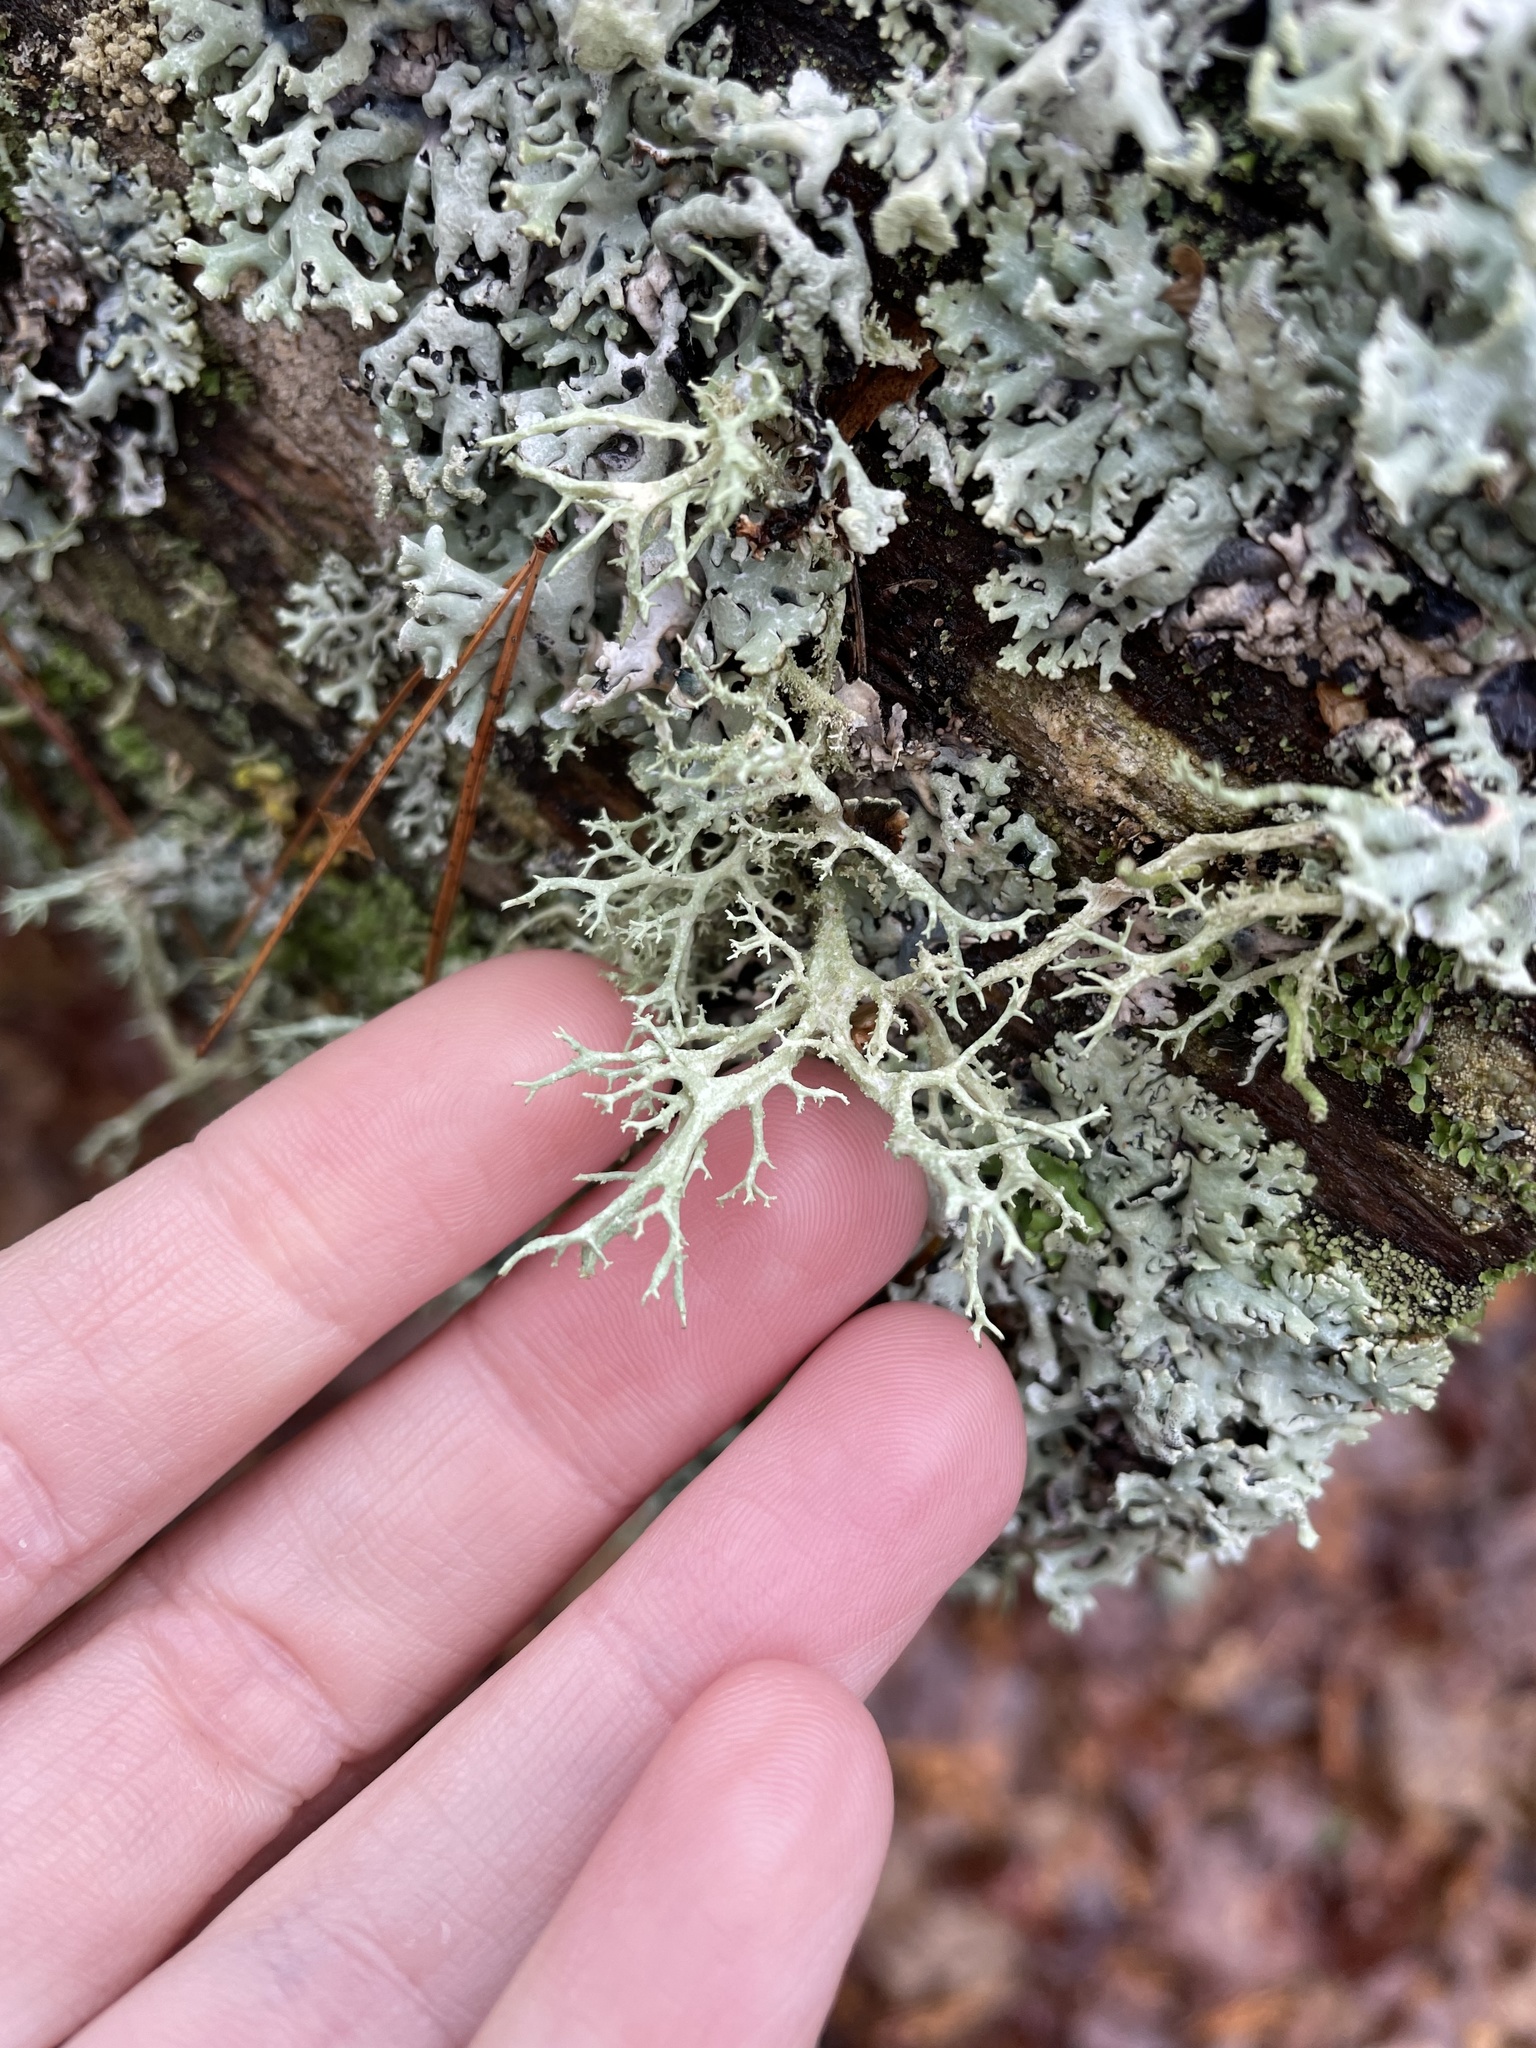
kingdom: Fungi
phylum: Ascomycota
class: Lecanoromycetes
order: Lecanorales
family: Parmeliaceae
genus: Evernia
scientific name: Evernia mesomorpha
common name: Boreal oak moss lichen
